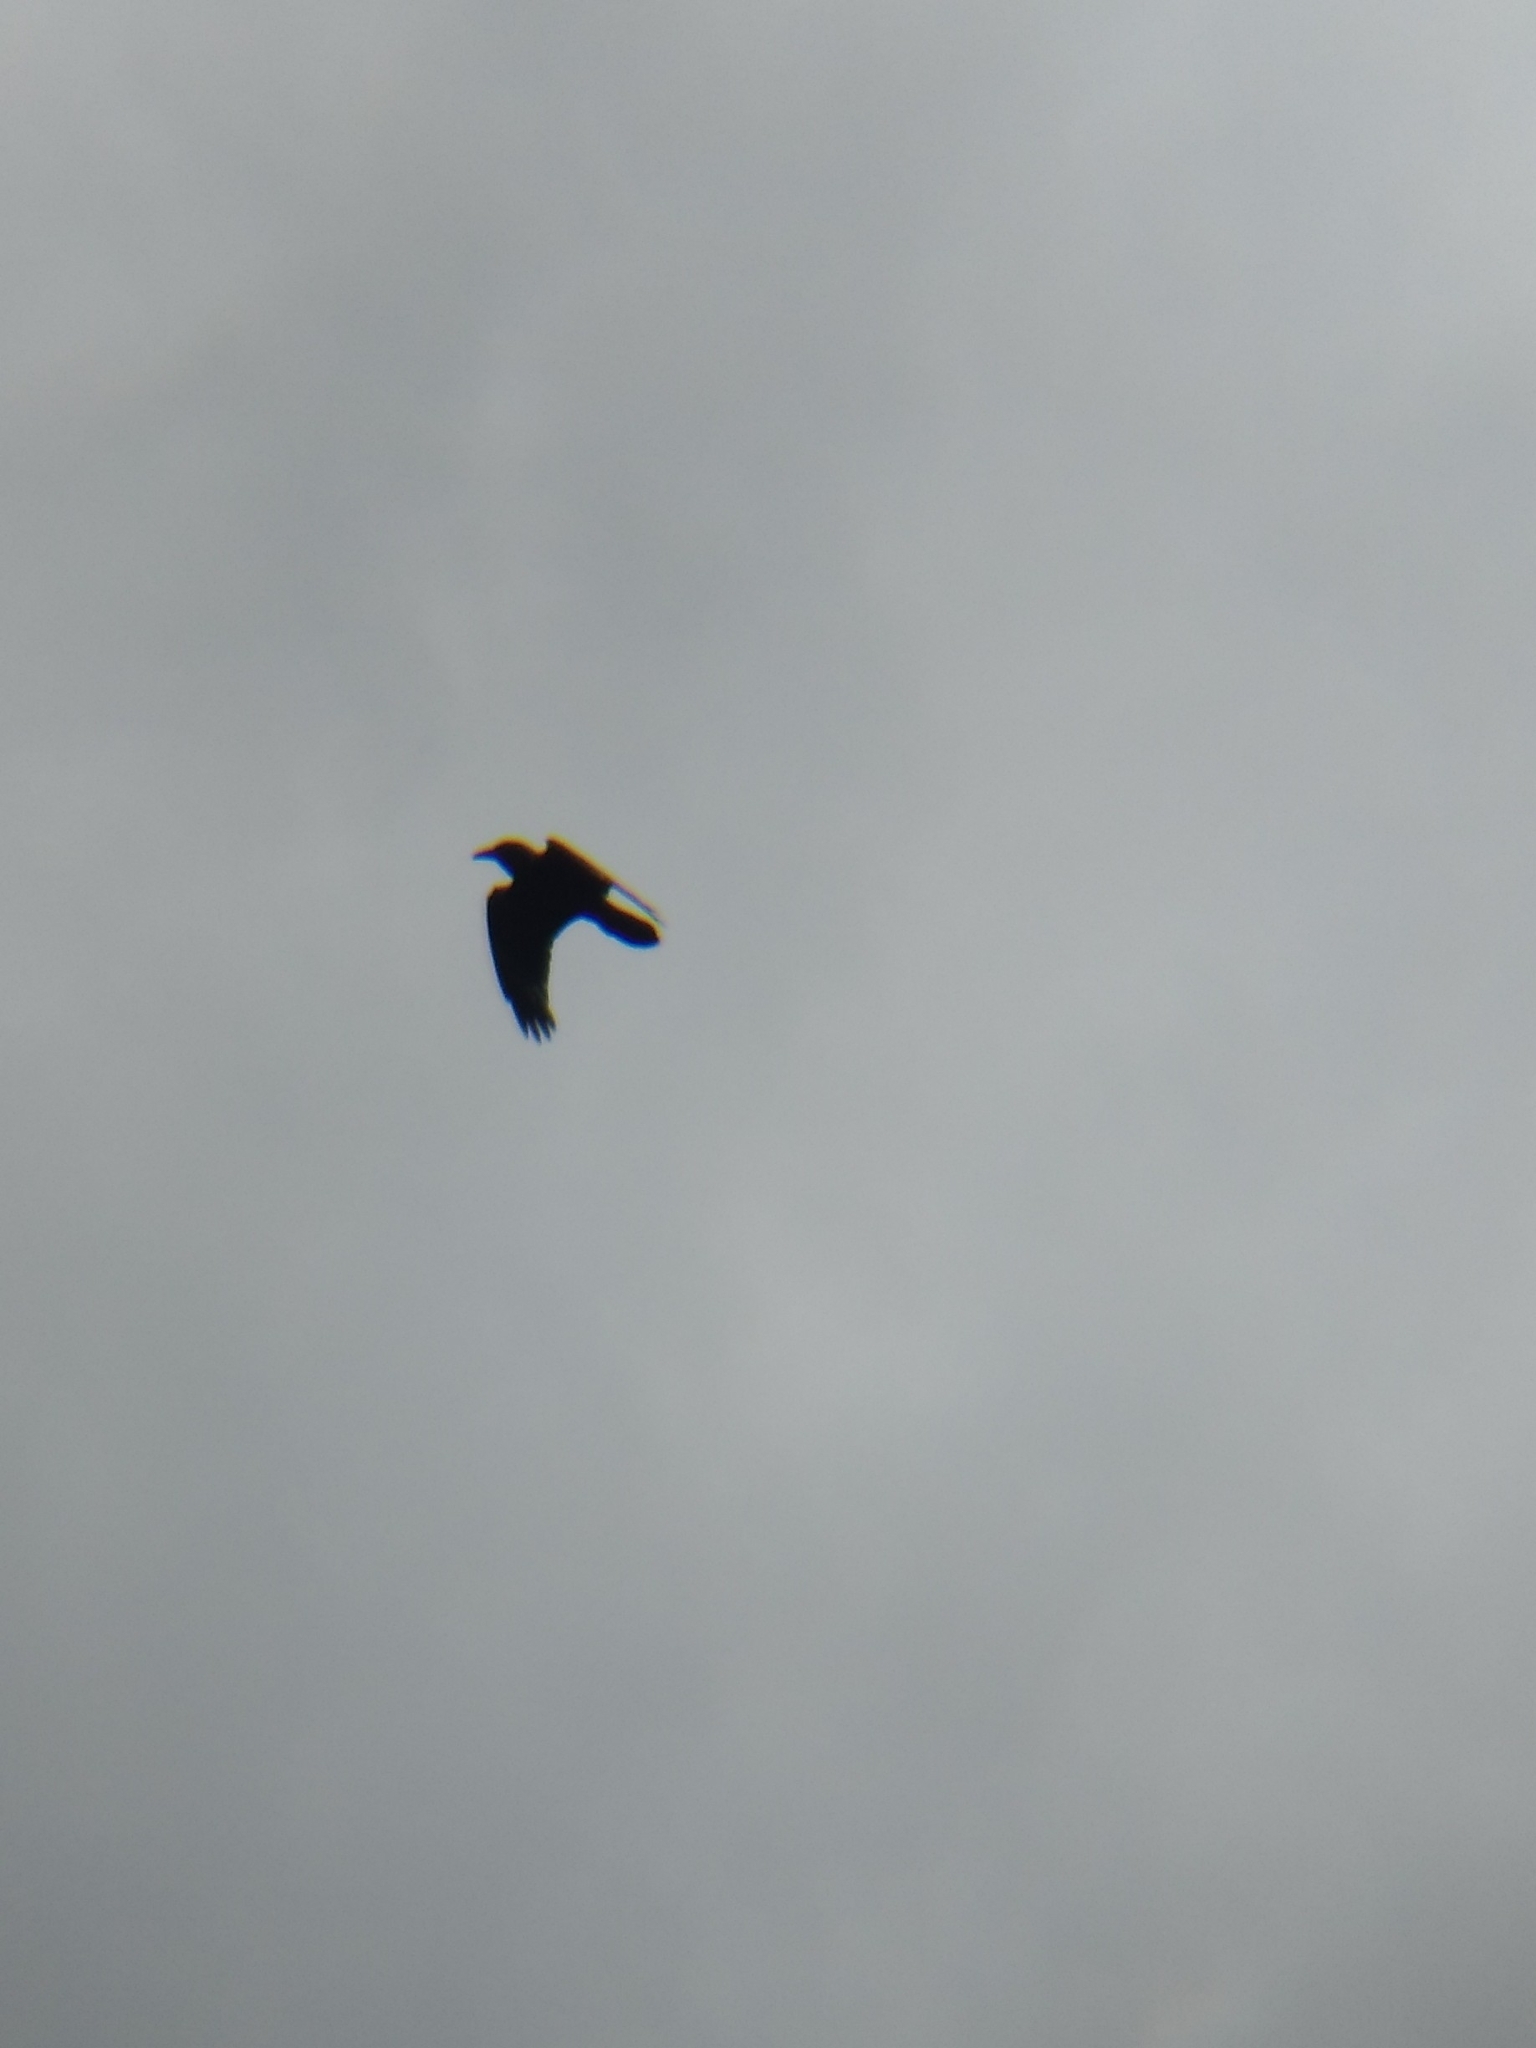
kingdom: Animalia
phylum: Chordata
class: Aves
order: Passeriformes
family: Corvidae
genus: Corvus
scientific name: Corvus corax
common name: Common raven
